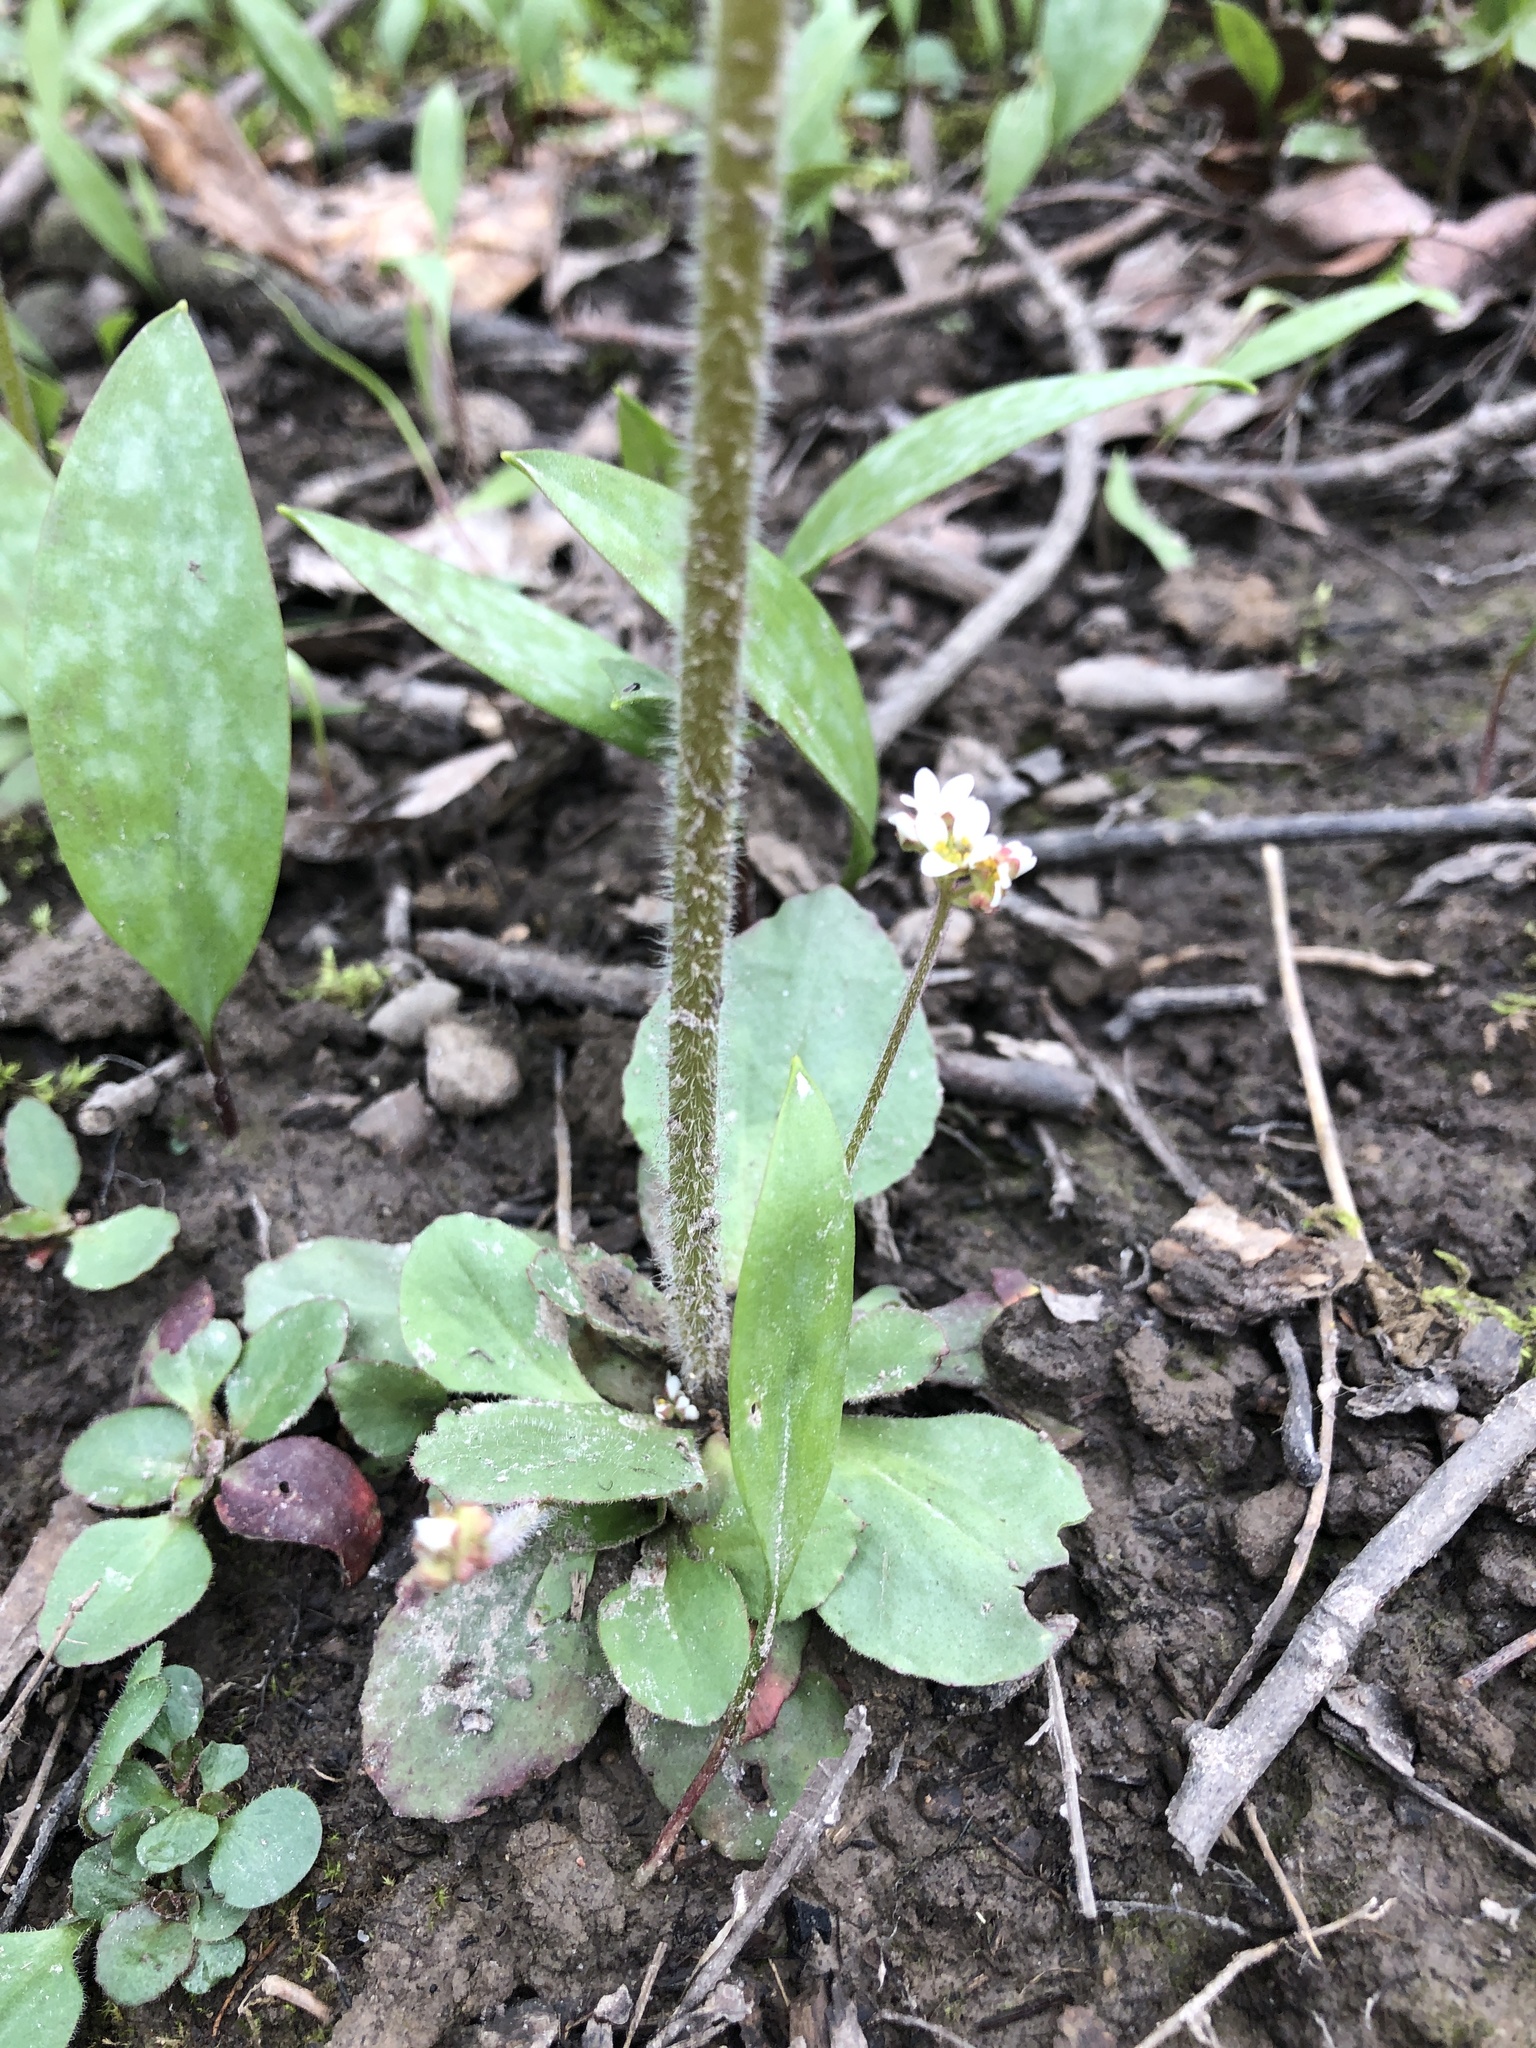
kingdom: Plantae
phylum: Tracheophyta
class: Magnoliopsida
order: Saxifragales
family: Saxifragaceae
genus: Micranthes
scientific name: Micranthes virginiensis
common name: Early saxifrage
